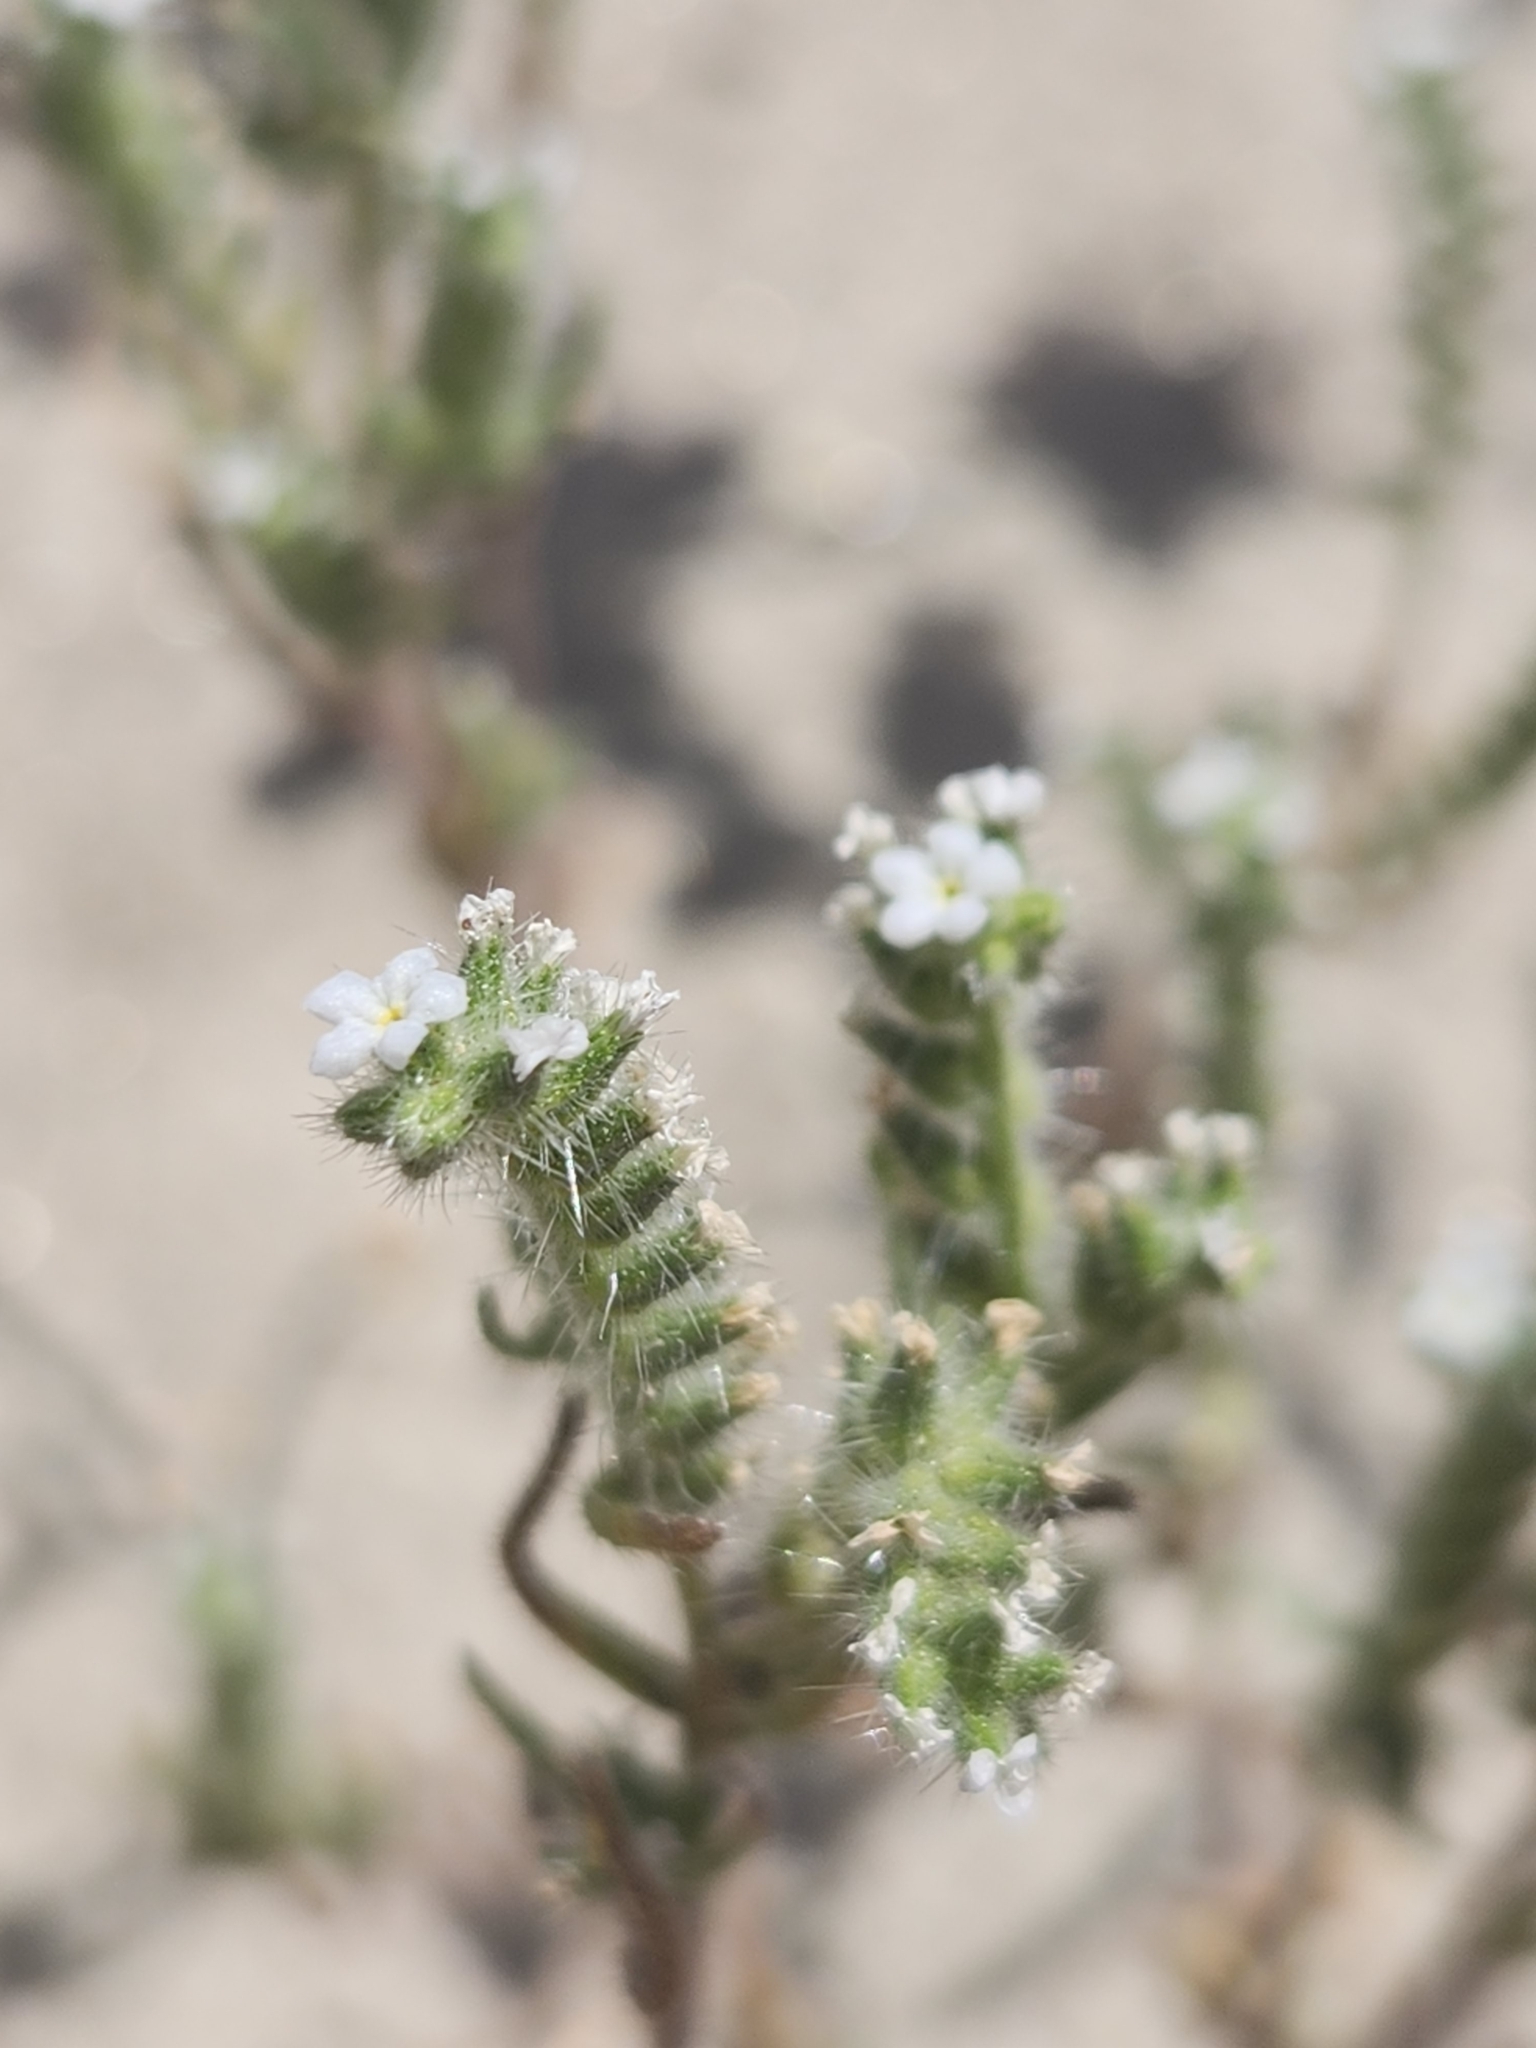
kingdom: Plantae
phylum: Tracheophyta
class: Magnoliopsida
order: Boraginales
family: Boraginaceae
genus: Johnstonella
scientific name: Johnstonella angustifolia
